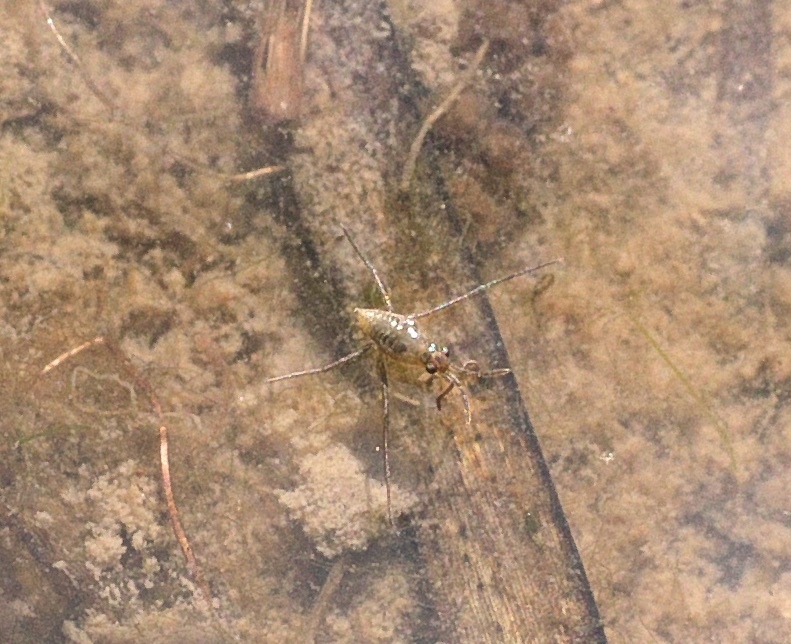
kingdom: Animalia
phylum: Arthropoda
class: Insecta
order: Hemiptera
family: Gerridae
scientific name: Gerridae
